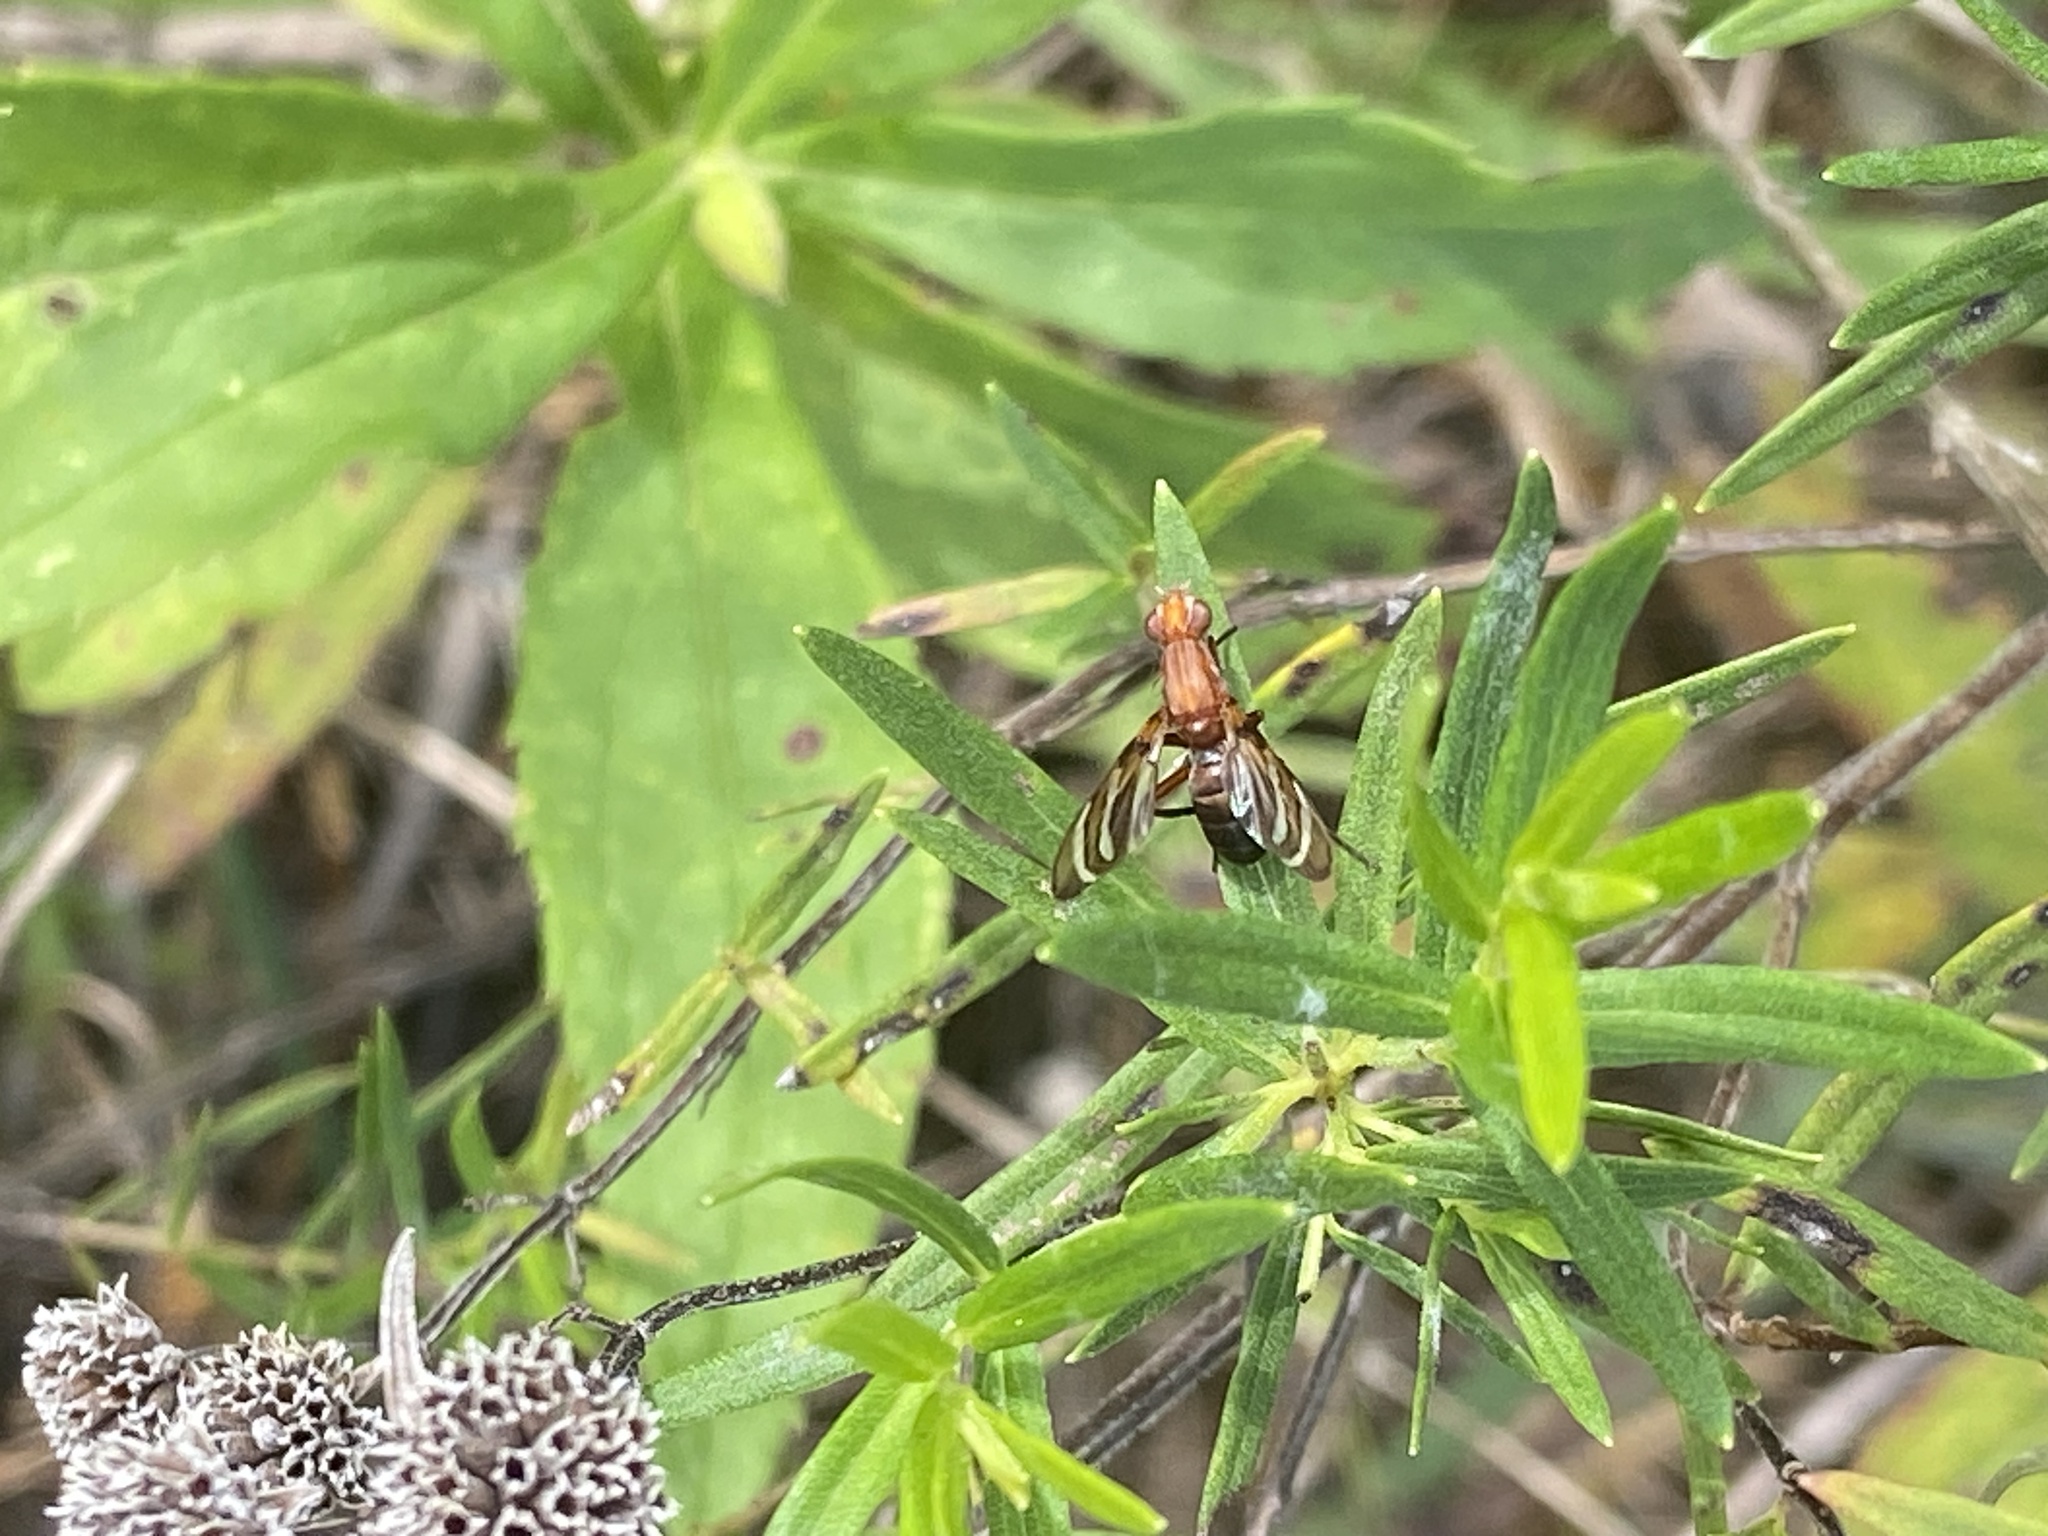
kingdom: Animalia
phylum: Arthropoda
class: Insecta
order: Diptera
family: Ulidiidae
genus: Tritoxa
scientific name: Tritoxa incurva
